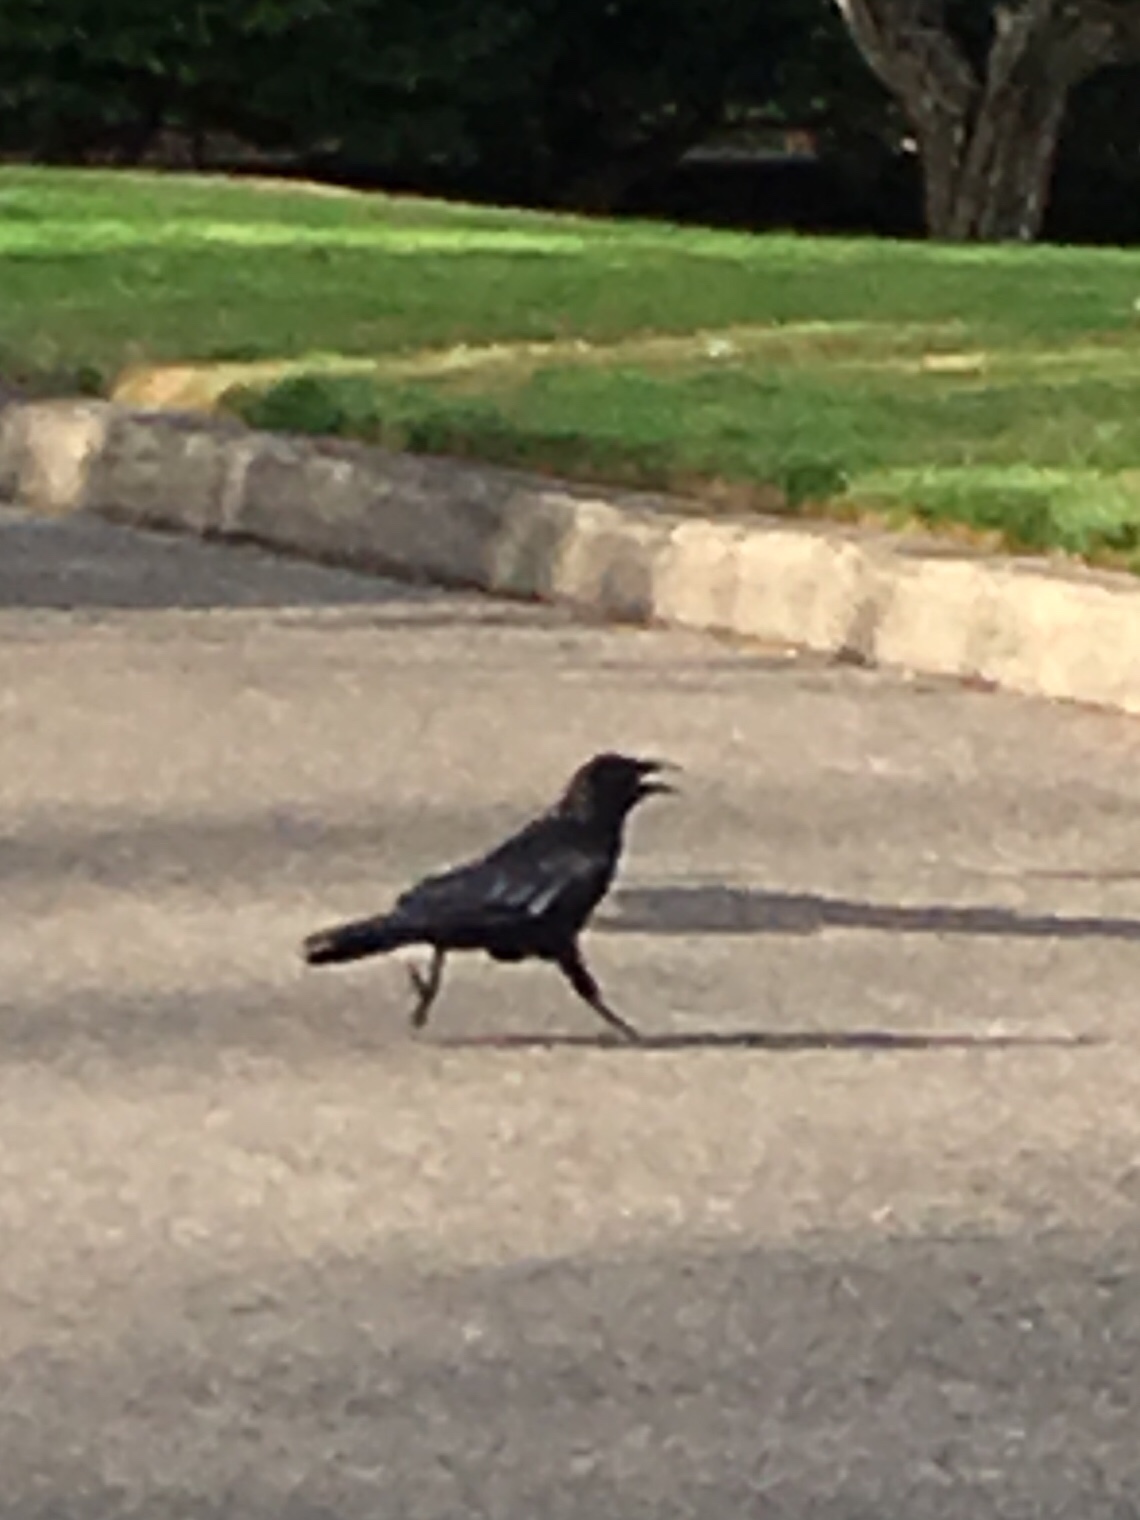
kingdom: Animalia
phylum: Chordata
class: Aves
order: Passeriformes
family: Corvidae
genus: Corvus
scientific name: Corvus brachyrhynchos
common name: American crow
